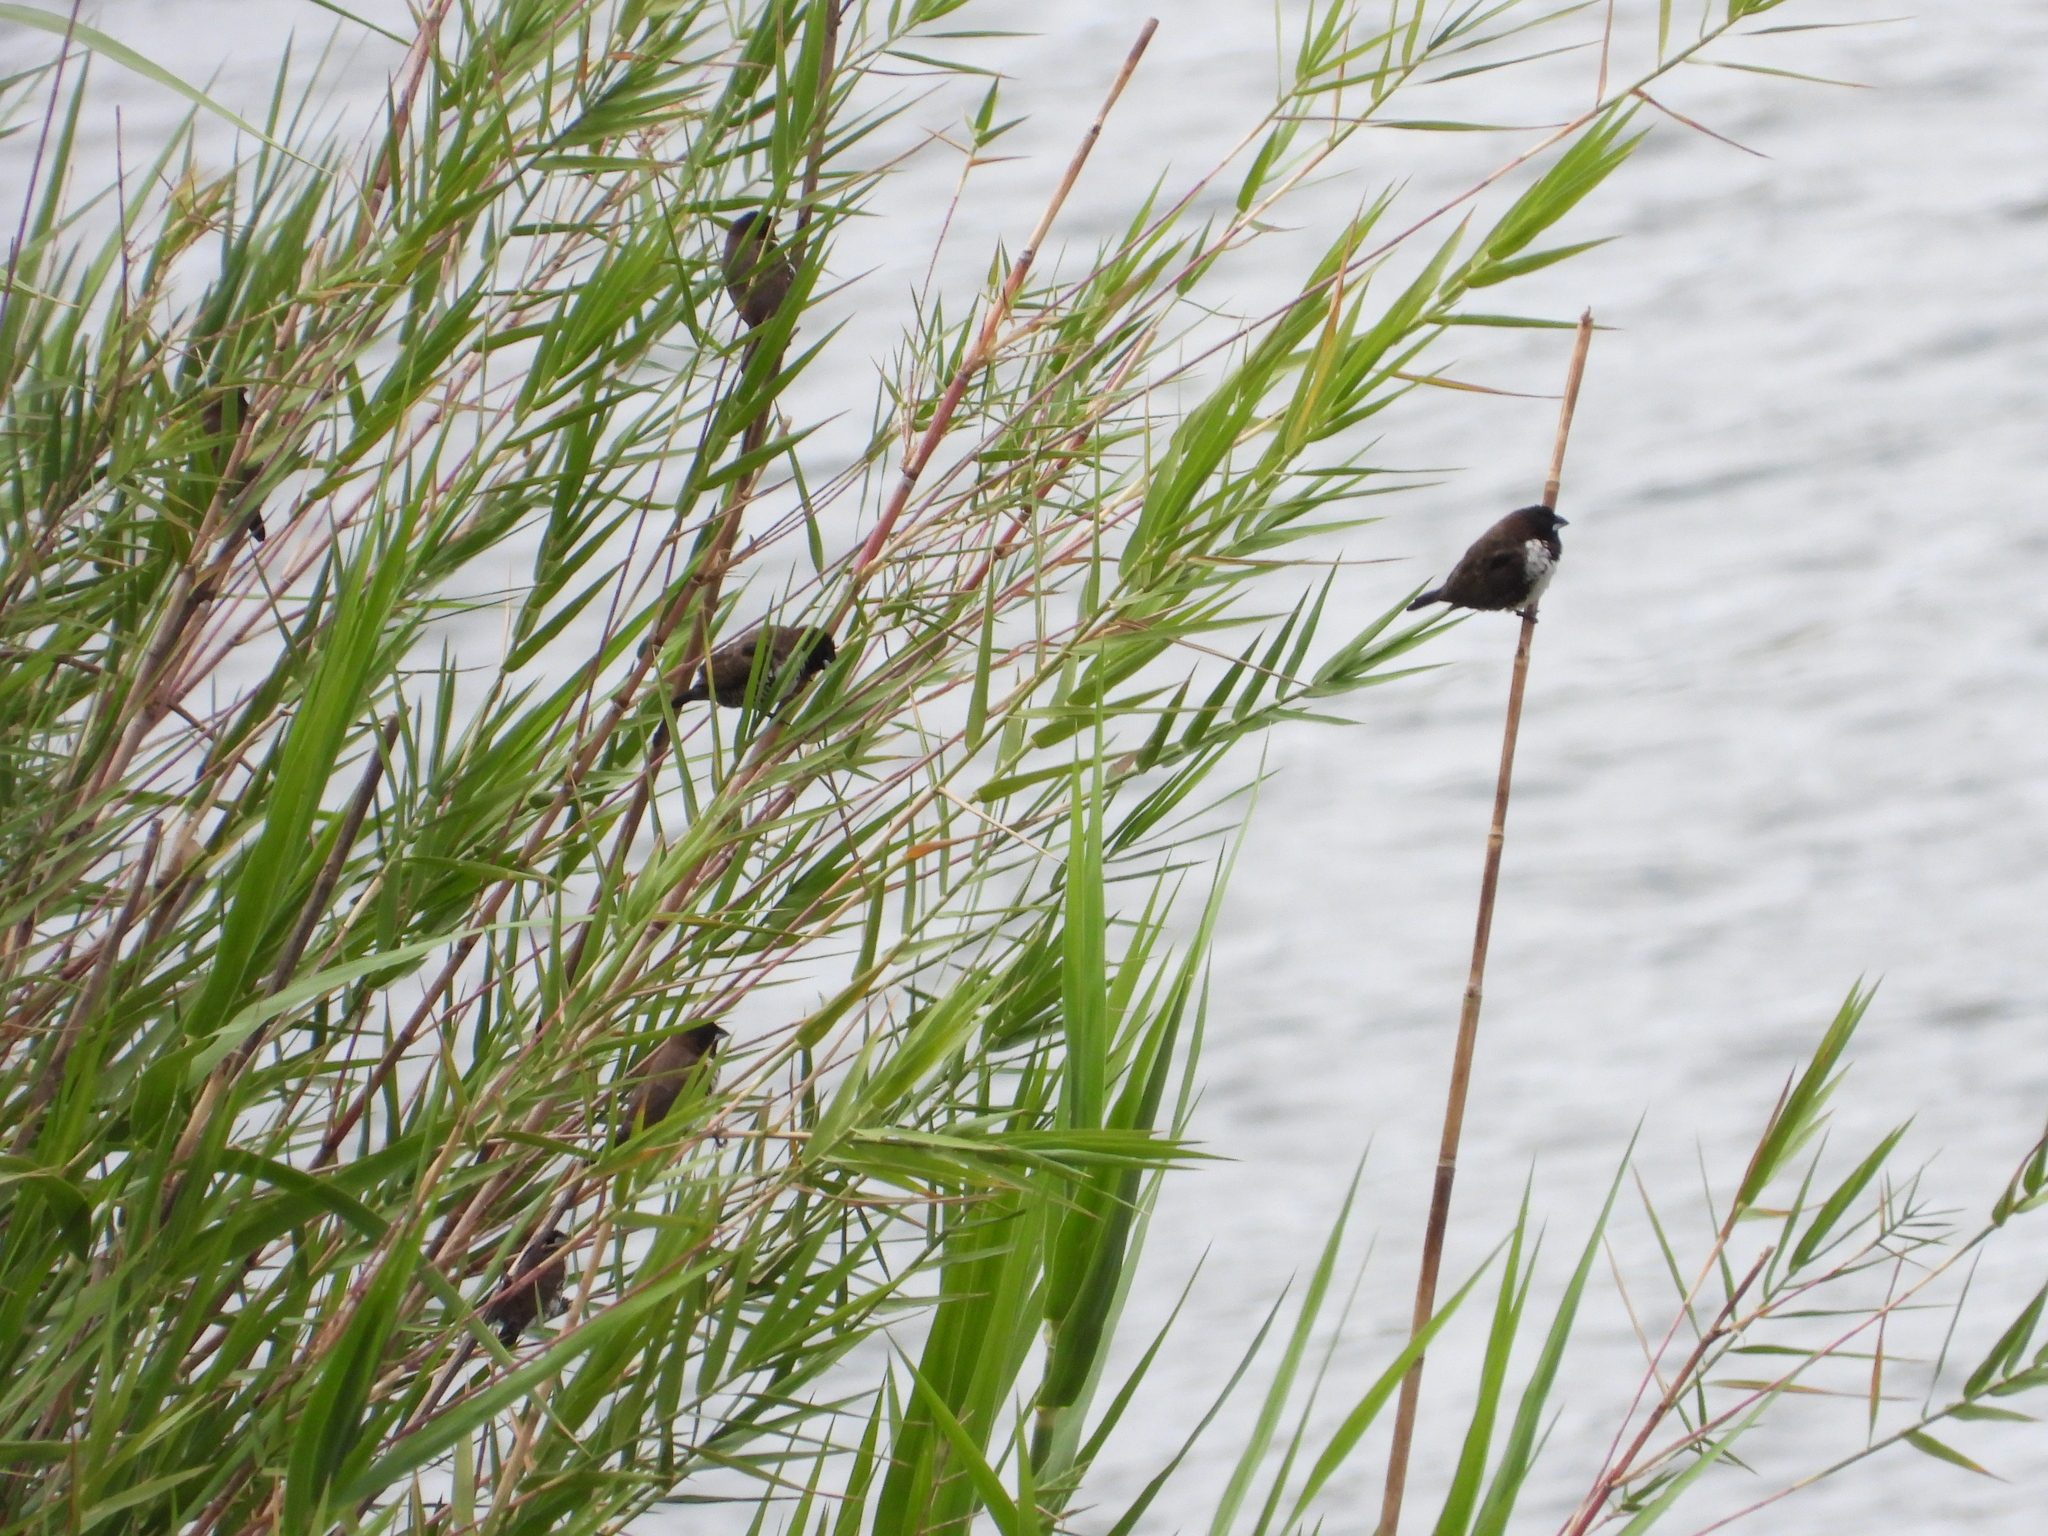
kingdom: Animalia
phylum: Chordata
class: Aves
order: Passeriformes
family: Estrildidae
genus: Lonchura
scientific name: Lonchura cucullata
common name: Bronze mannikin
